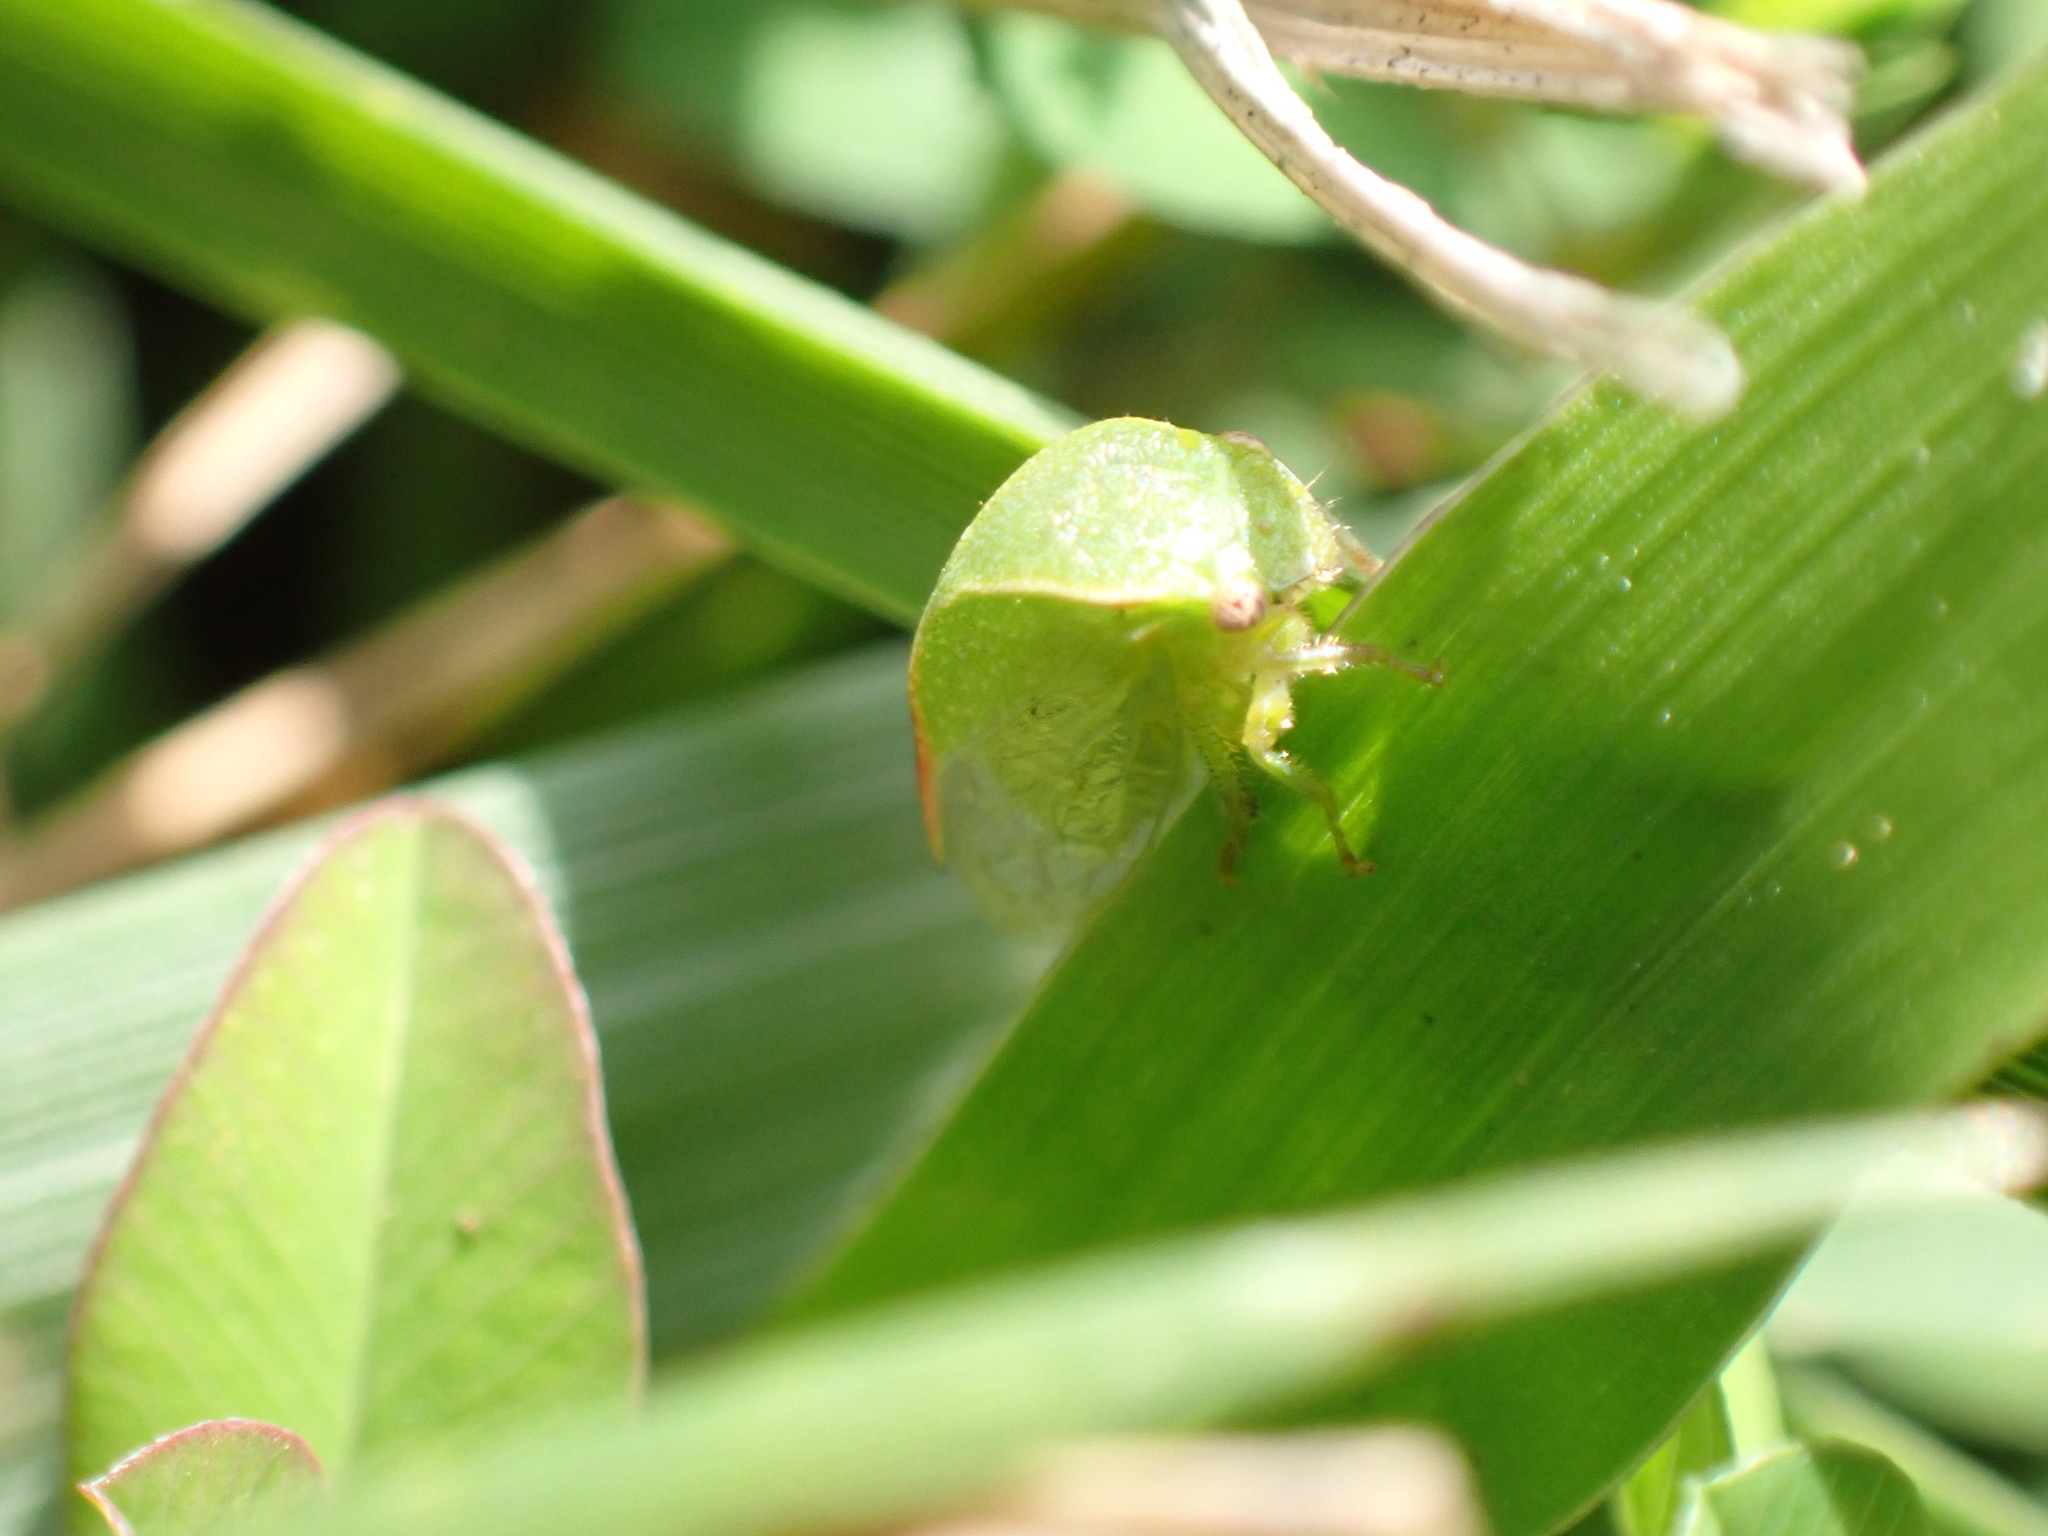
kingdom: Animalia
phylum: Arthropoda
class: Insecta
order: Hemiptera
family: Membracidae
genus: Spissistilus
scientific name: Spissistilus festina
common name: Membracid bug
